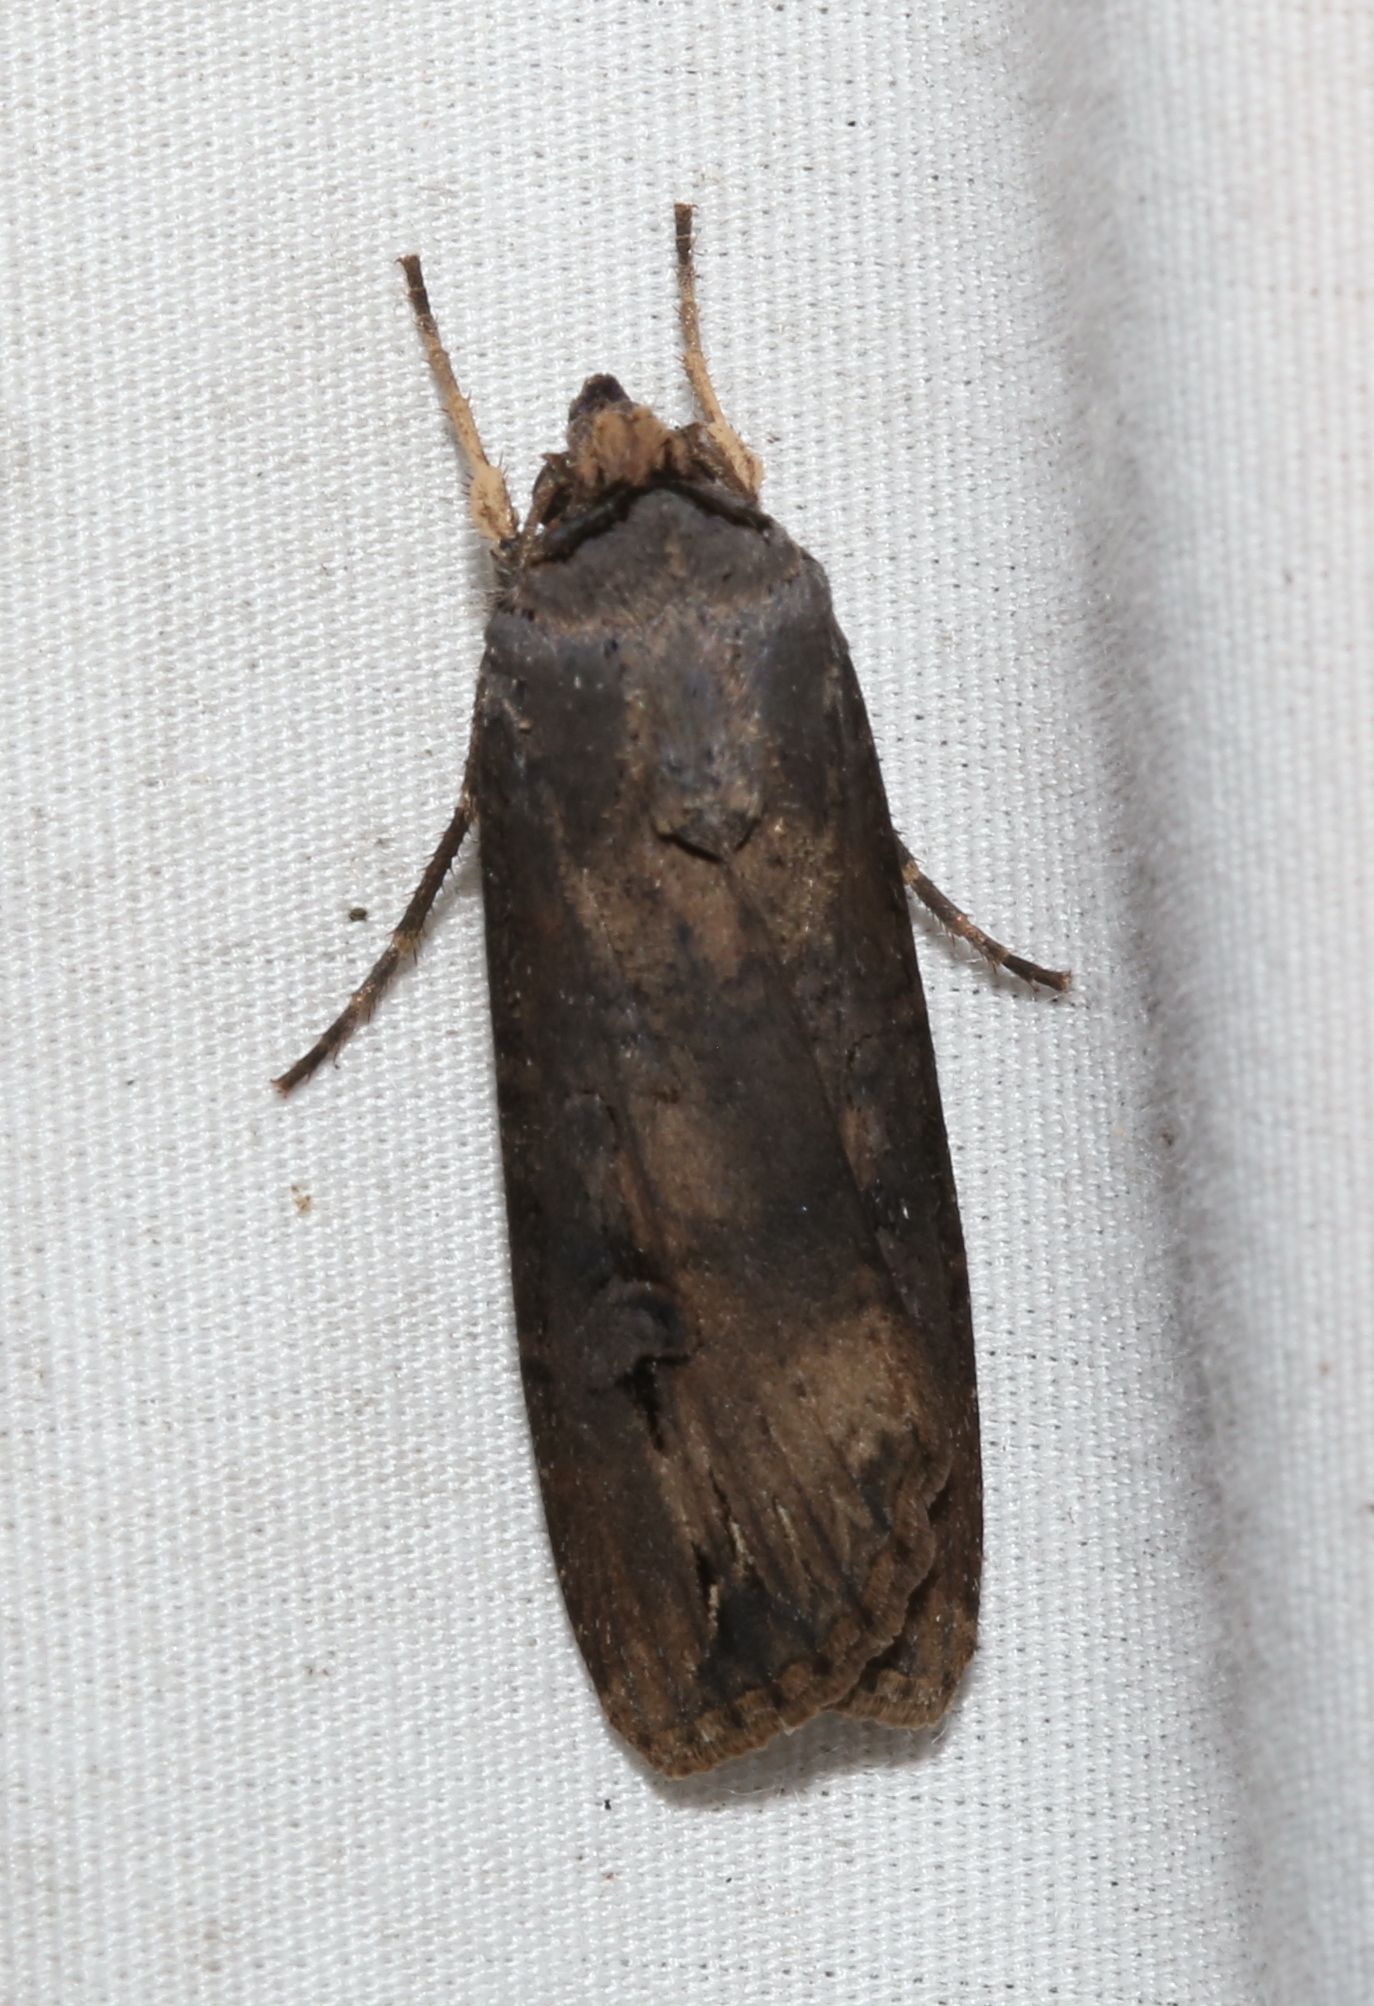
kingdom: Animalia
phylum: Arthropoda
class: Insecta
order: Lepidoptera
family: Noctuidae
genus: Agrotis
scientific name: Agrotis ipsilon
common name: Dark sword-grass
